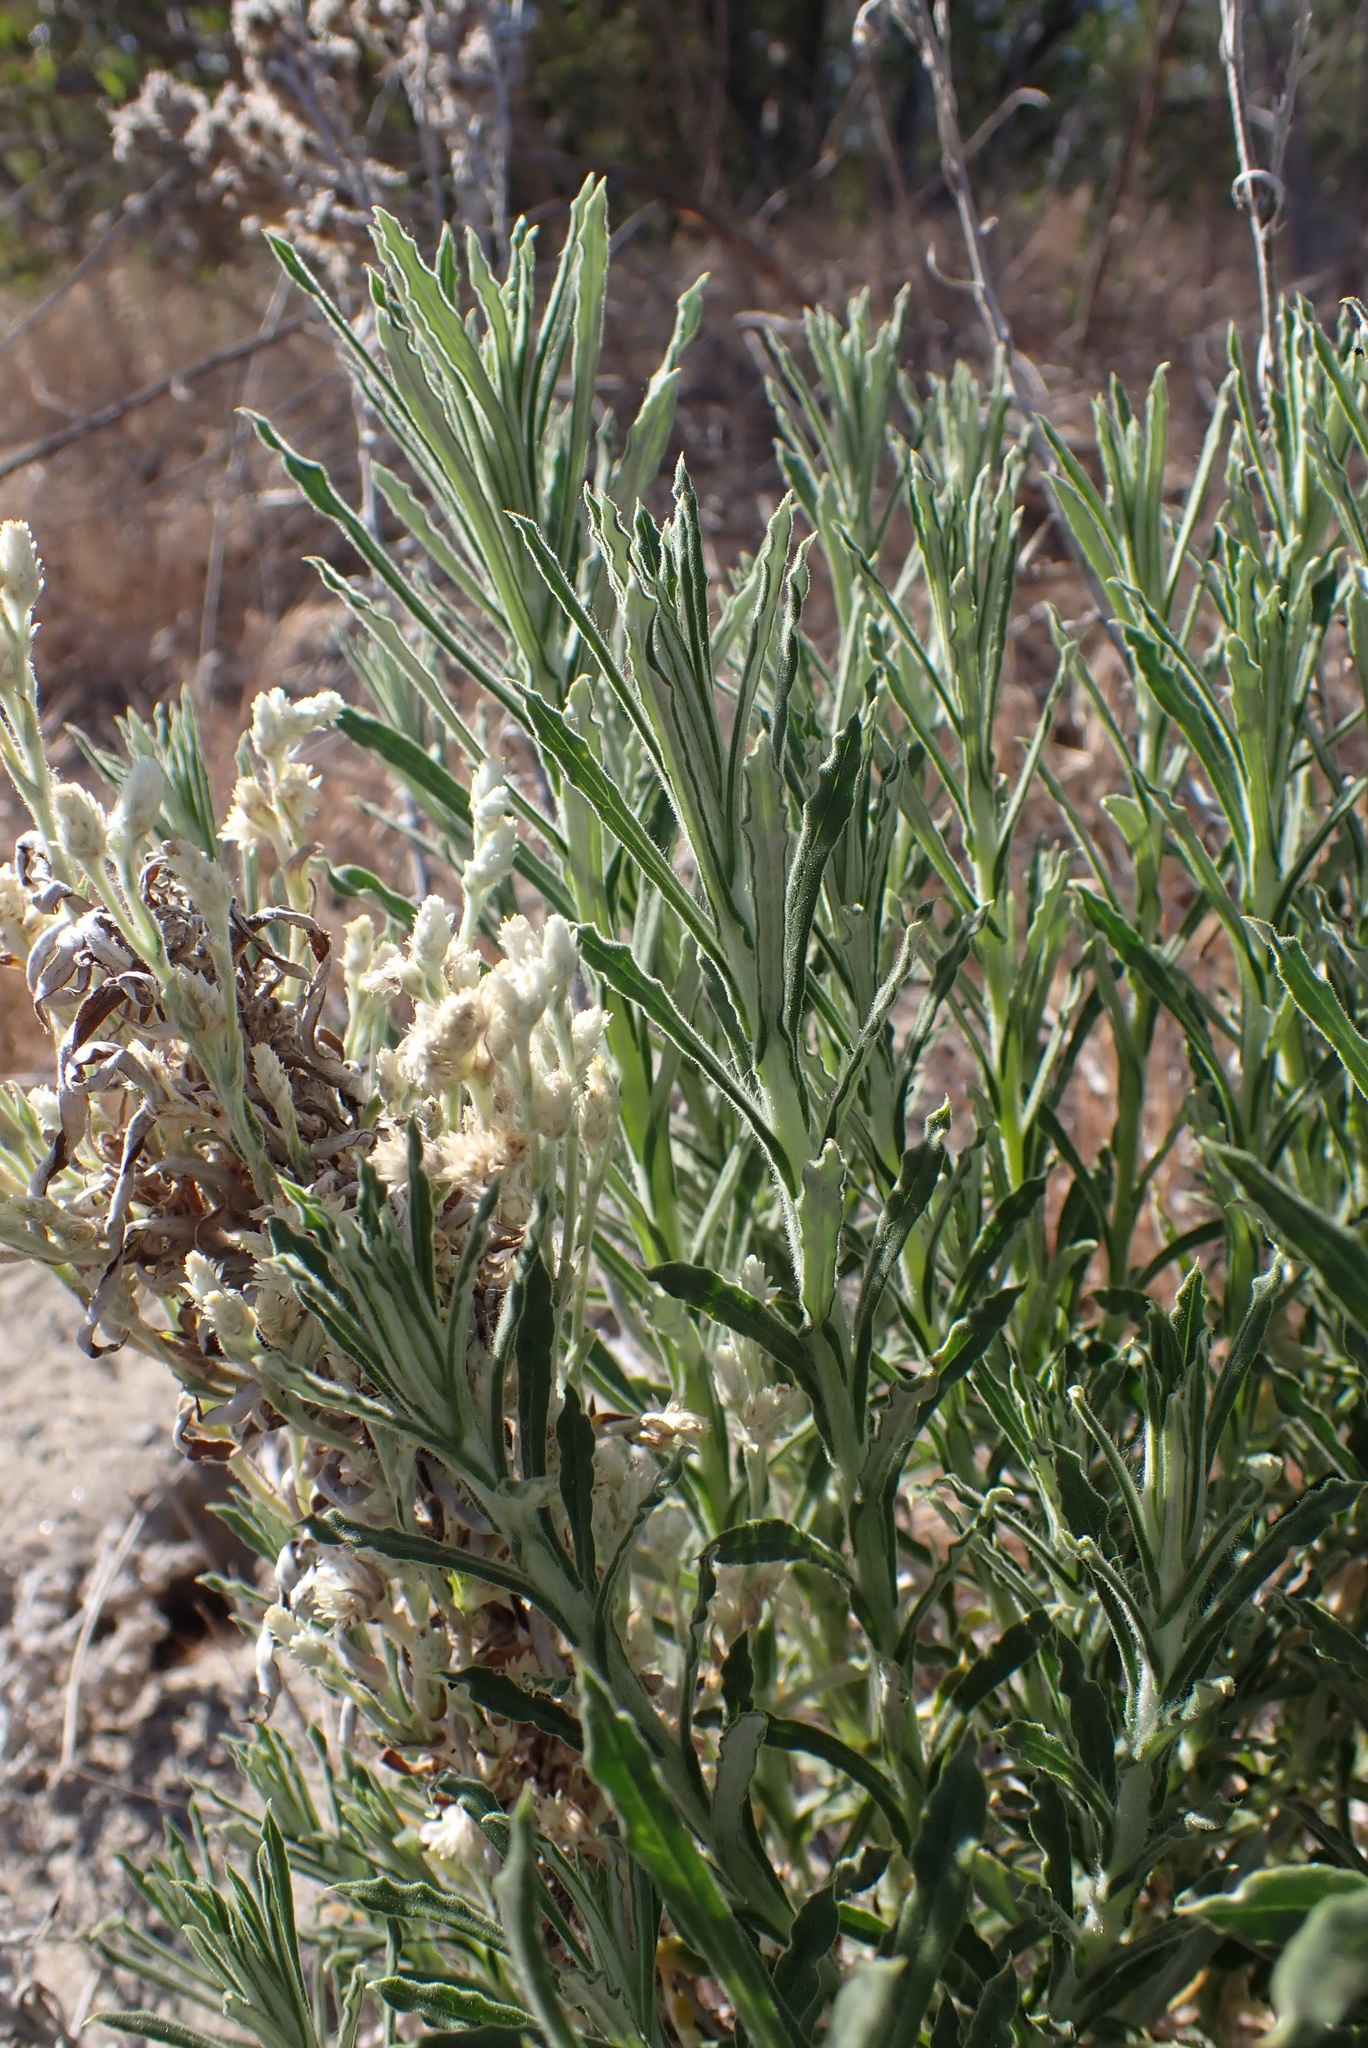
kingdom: Plantae
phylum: Tracheophyta
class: Magnoliopsida
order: Asterales
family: Asteraceae
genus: Pseudognaphalium
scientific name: Pseudognaphalium leucocephalum
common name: White cudweed
